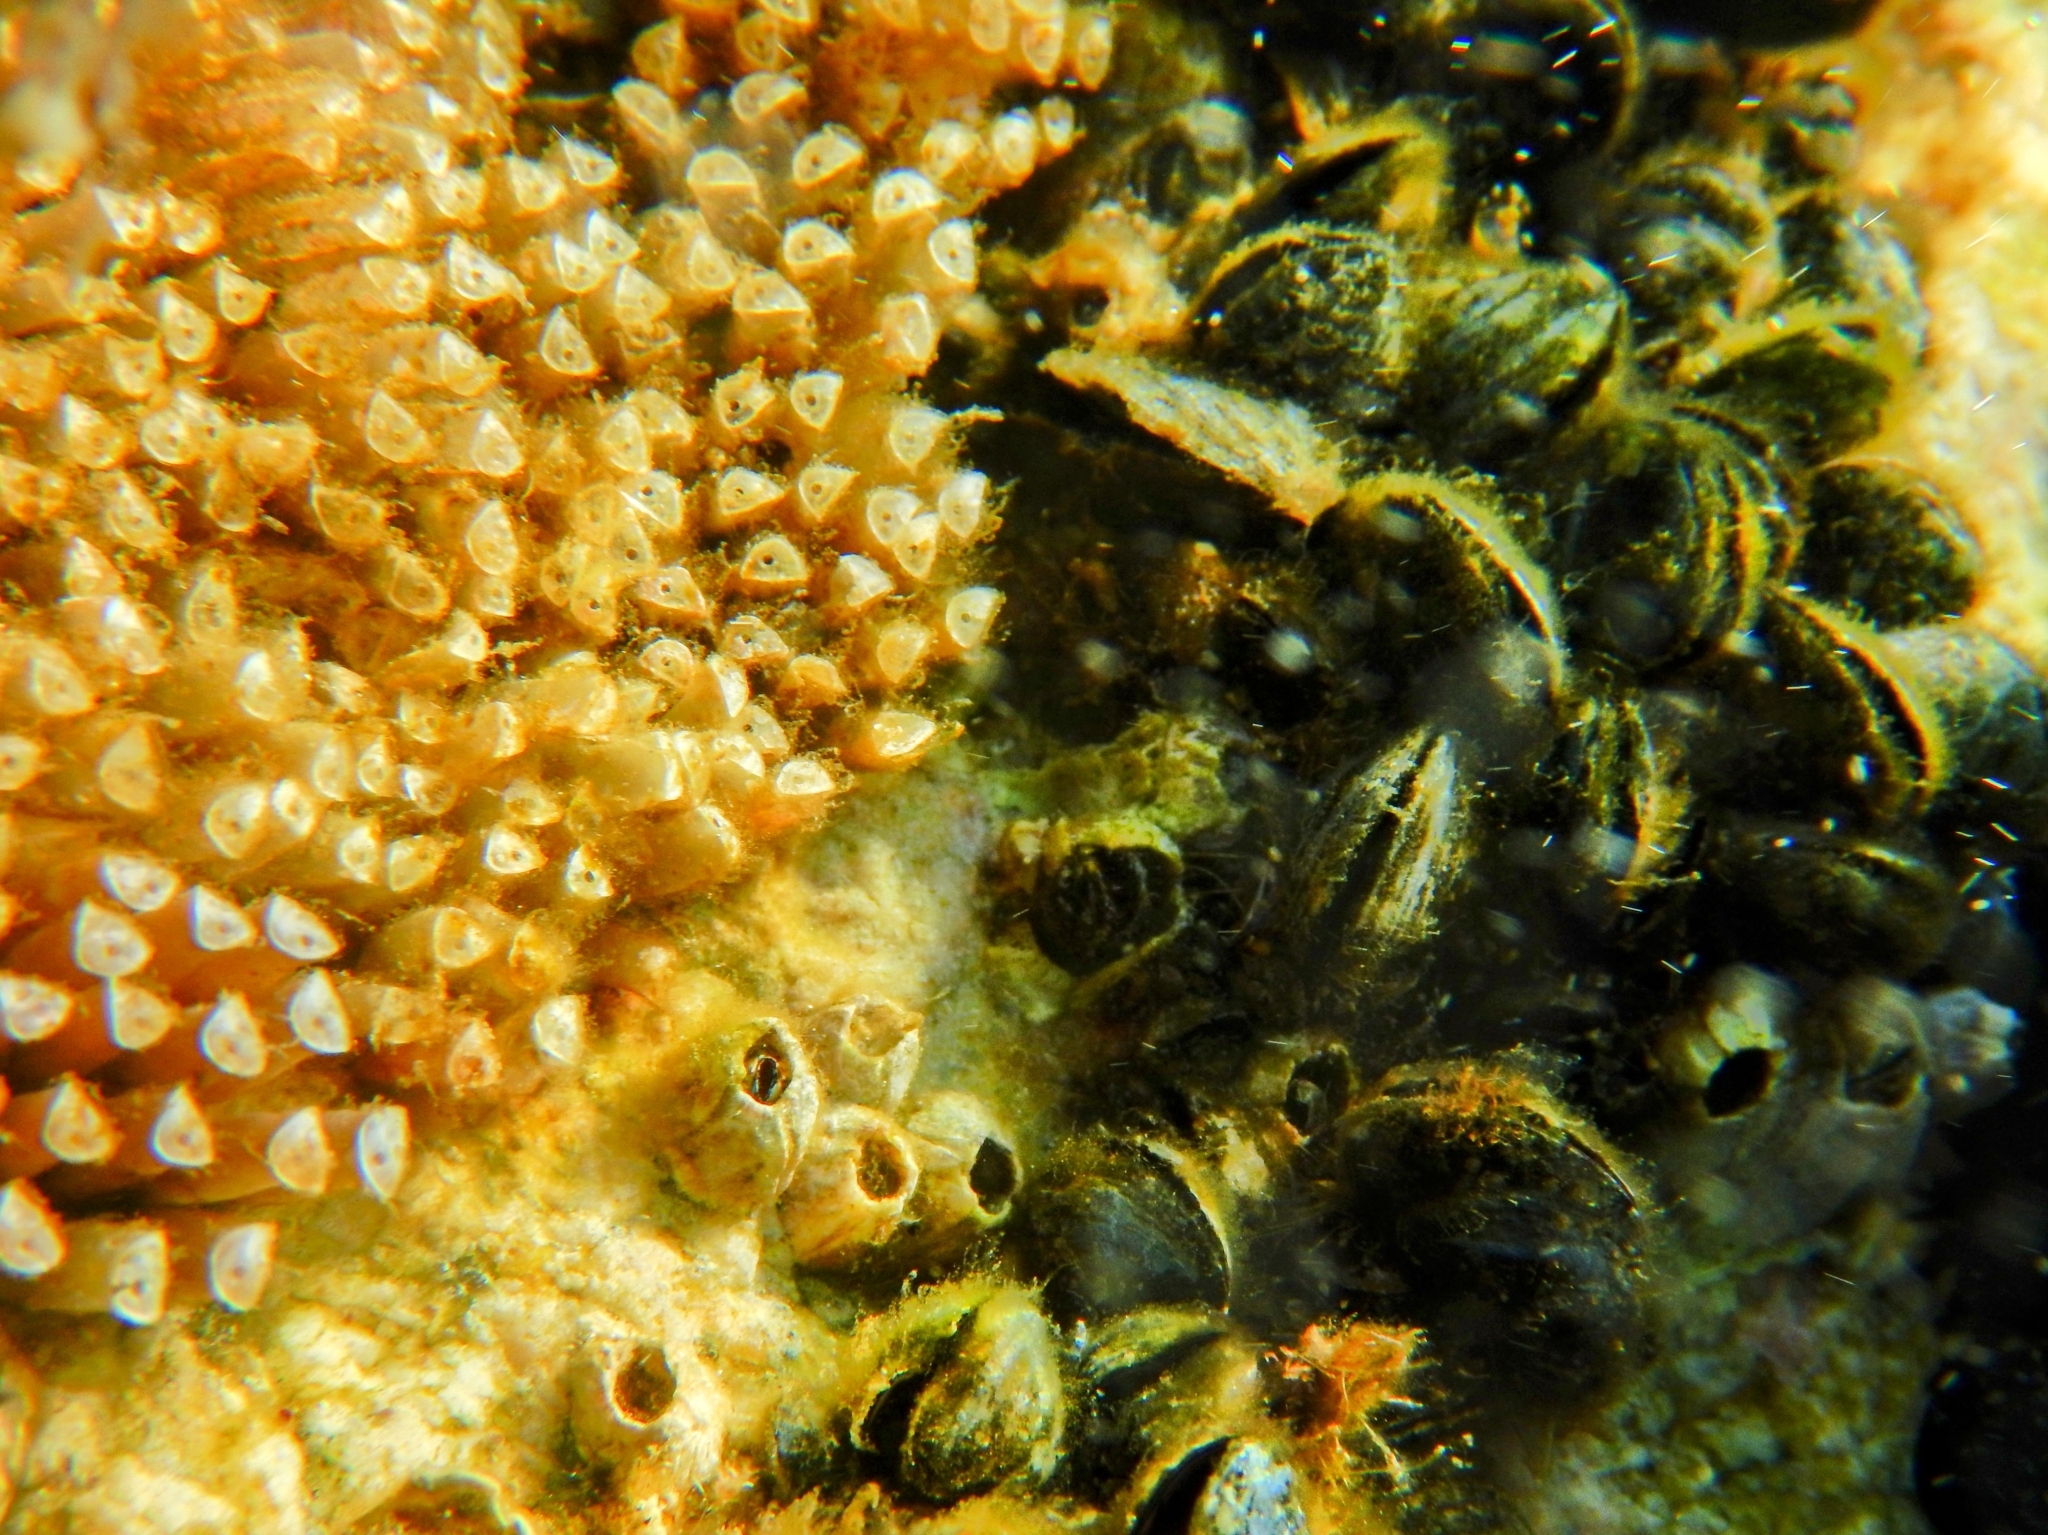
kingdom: Animalia
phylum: Mollusca
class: Gastropoda
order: Neogastropoda
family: Muricidae
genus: Stramonita
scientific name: Stramonita haemastoma
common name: Florida dog winkle
